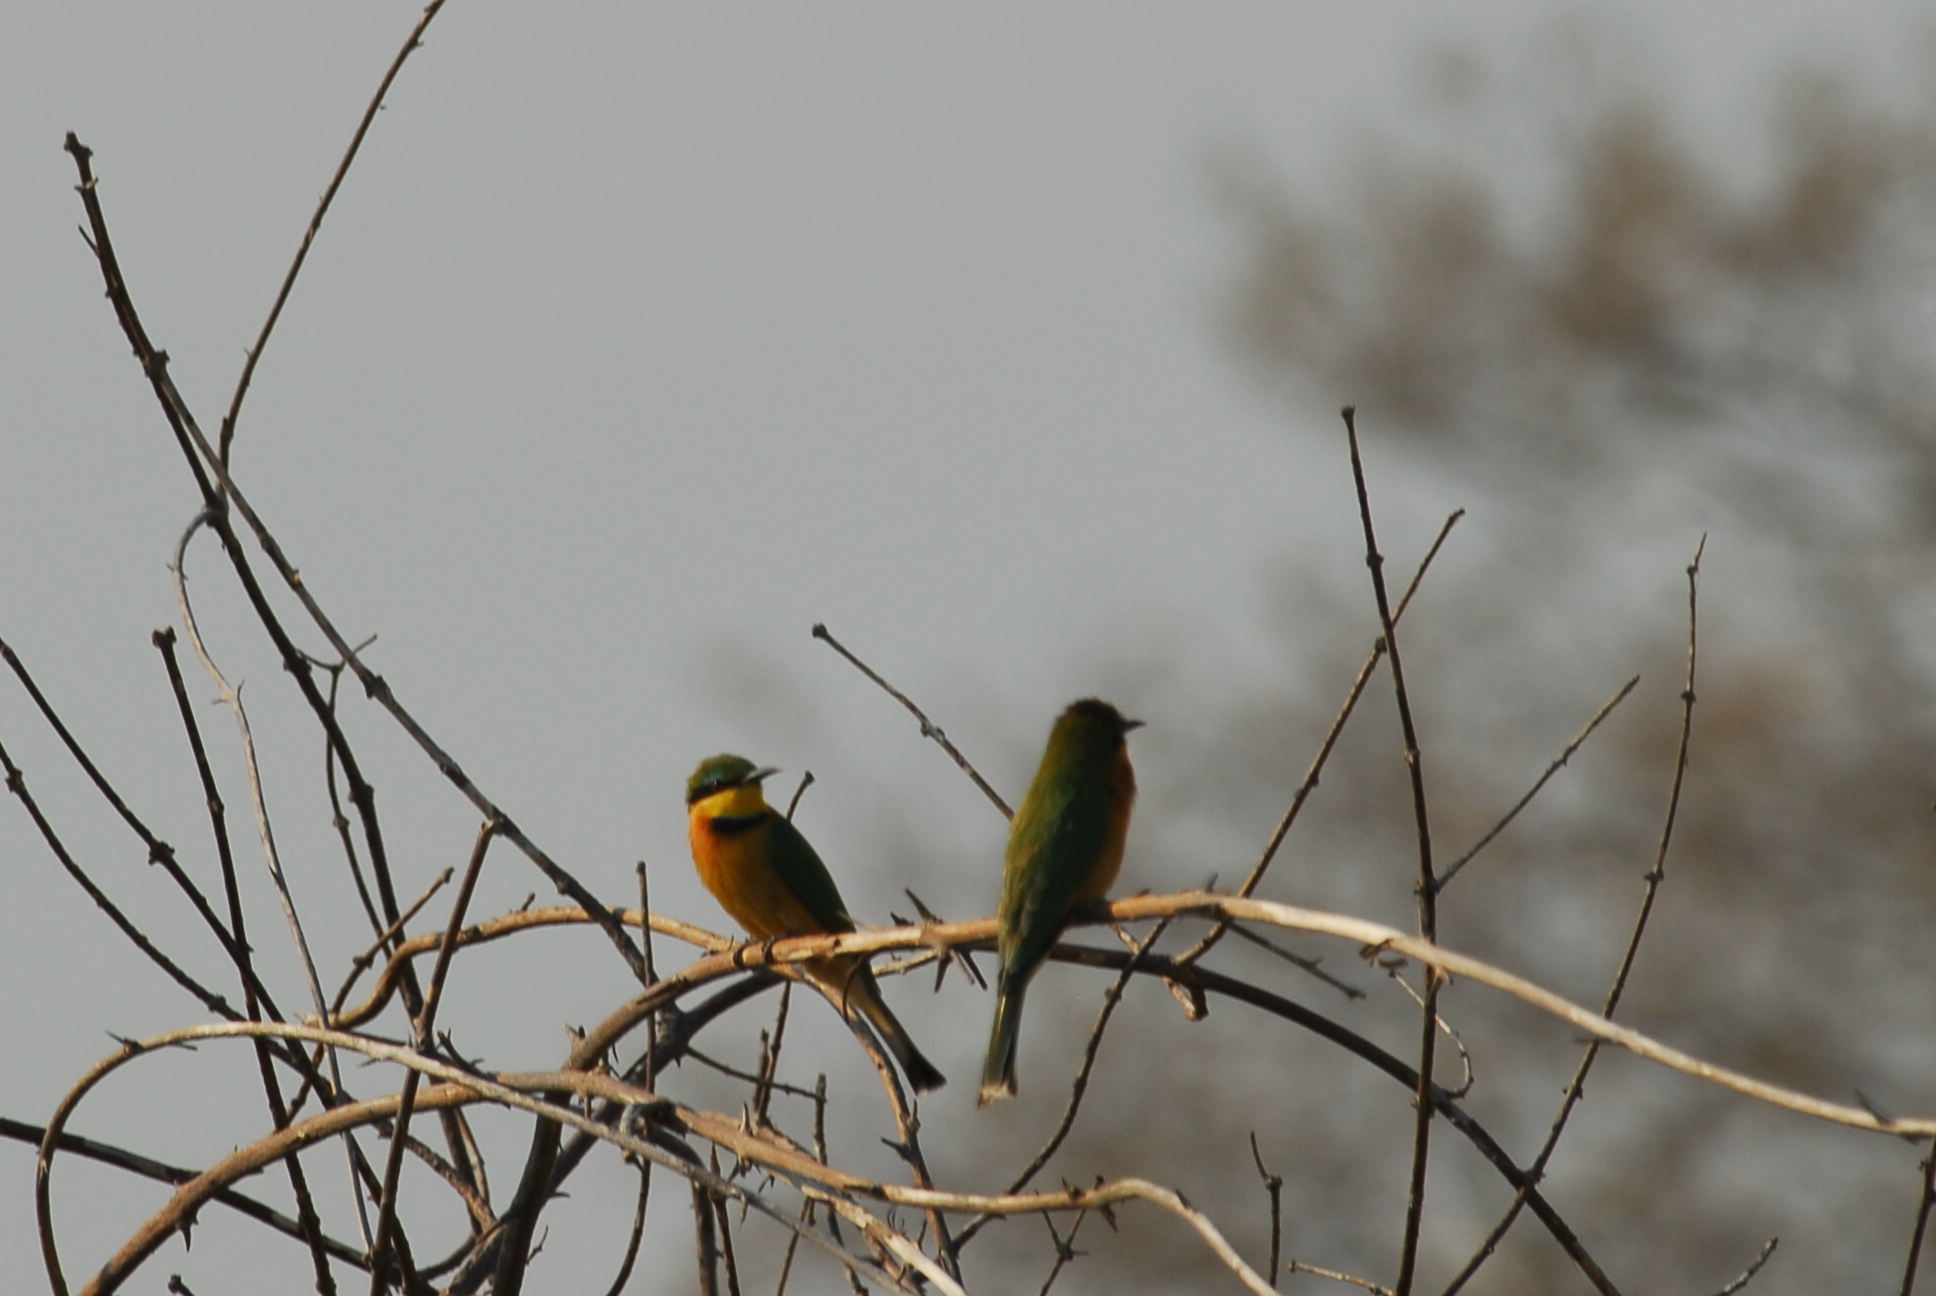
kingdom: Animalia
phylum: Chordata
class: Aves
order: Coraciiformes
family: Meropidae
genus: Merops
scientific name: Merops pusillus
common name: Little bee-eater
